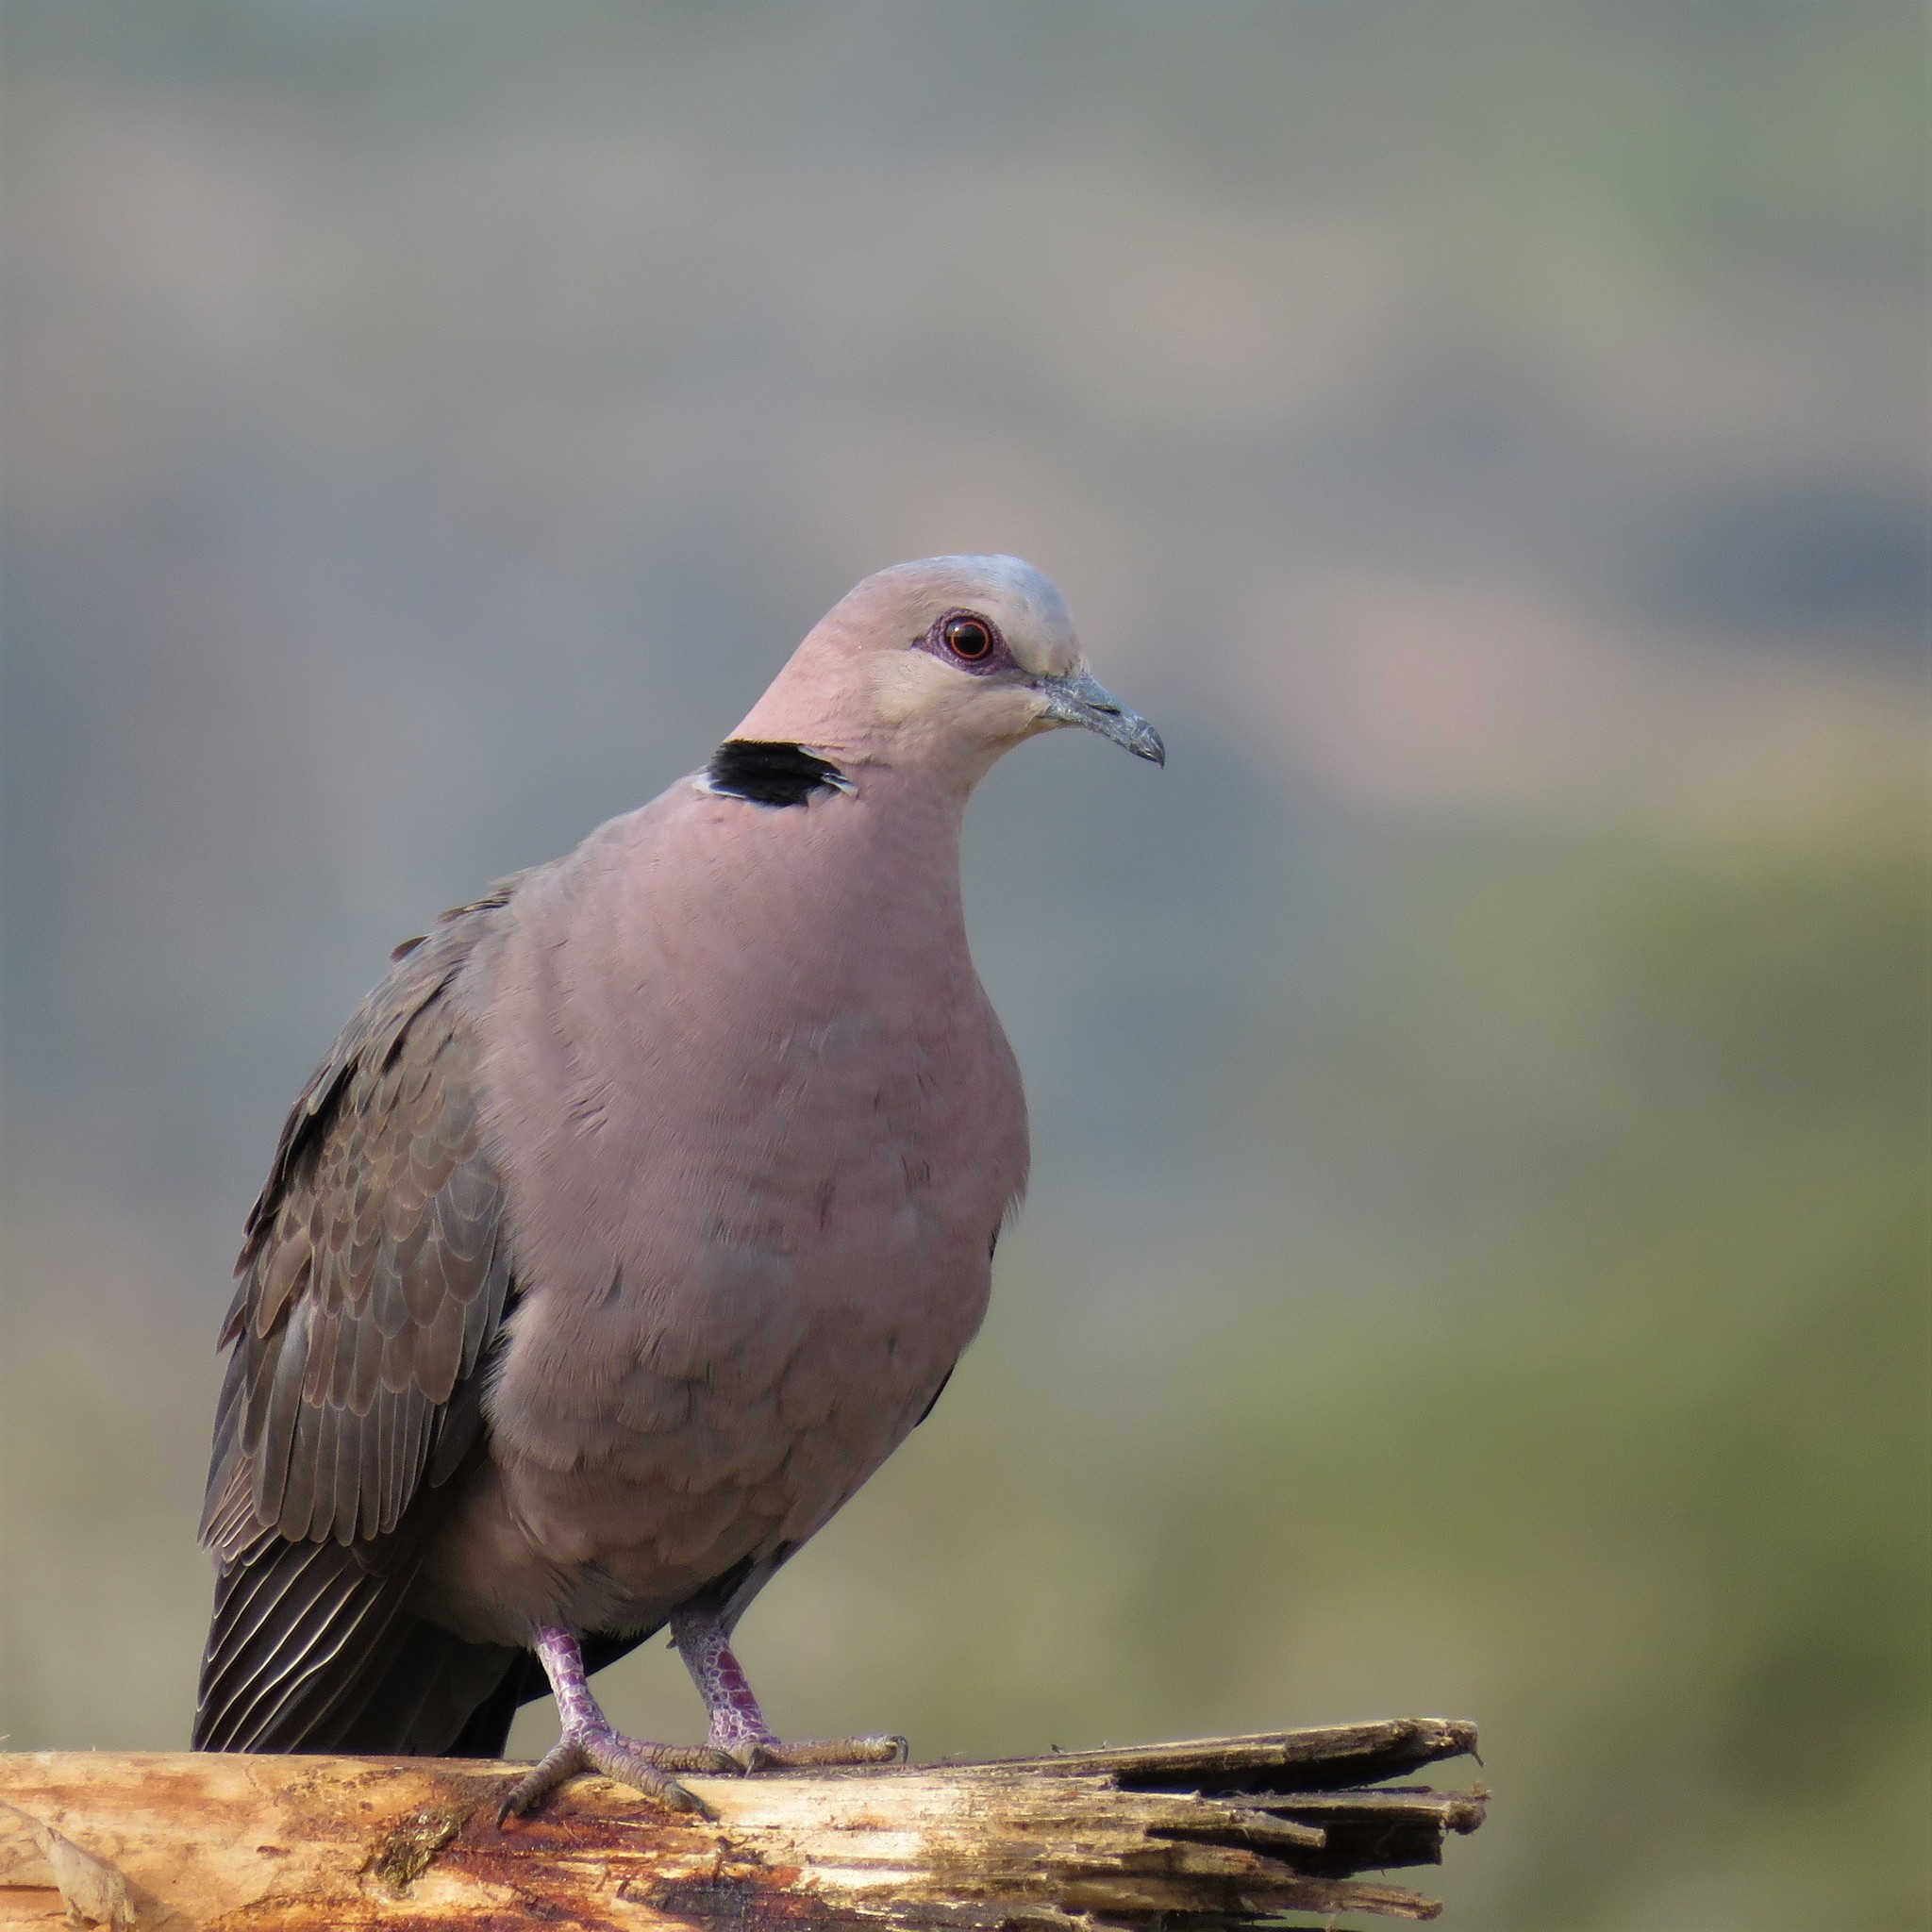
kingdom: Animalia
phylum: Chordata
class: Aves
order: Columbiformes
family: Columbidae
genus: Streptopelia
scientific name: Streptopelia semitorquata
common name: Red-eyed dove
